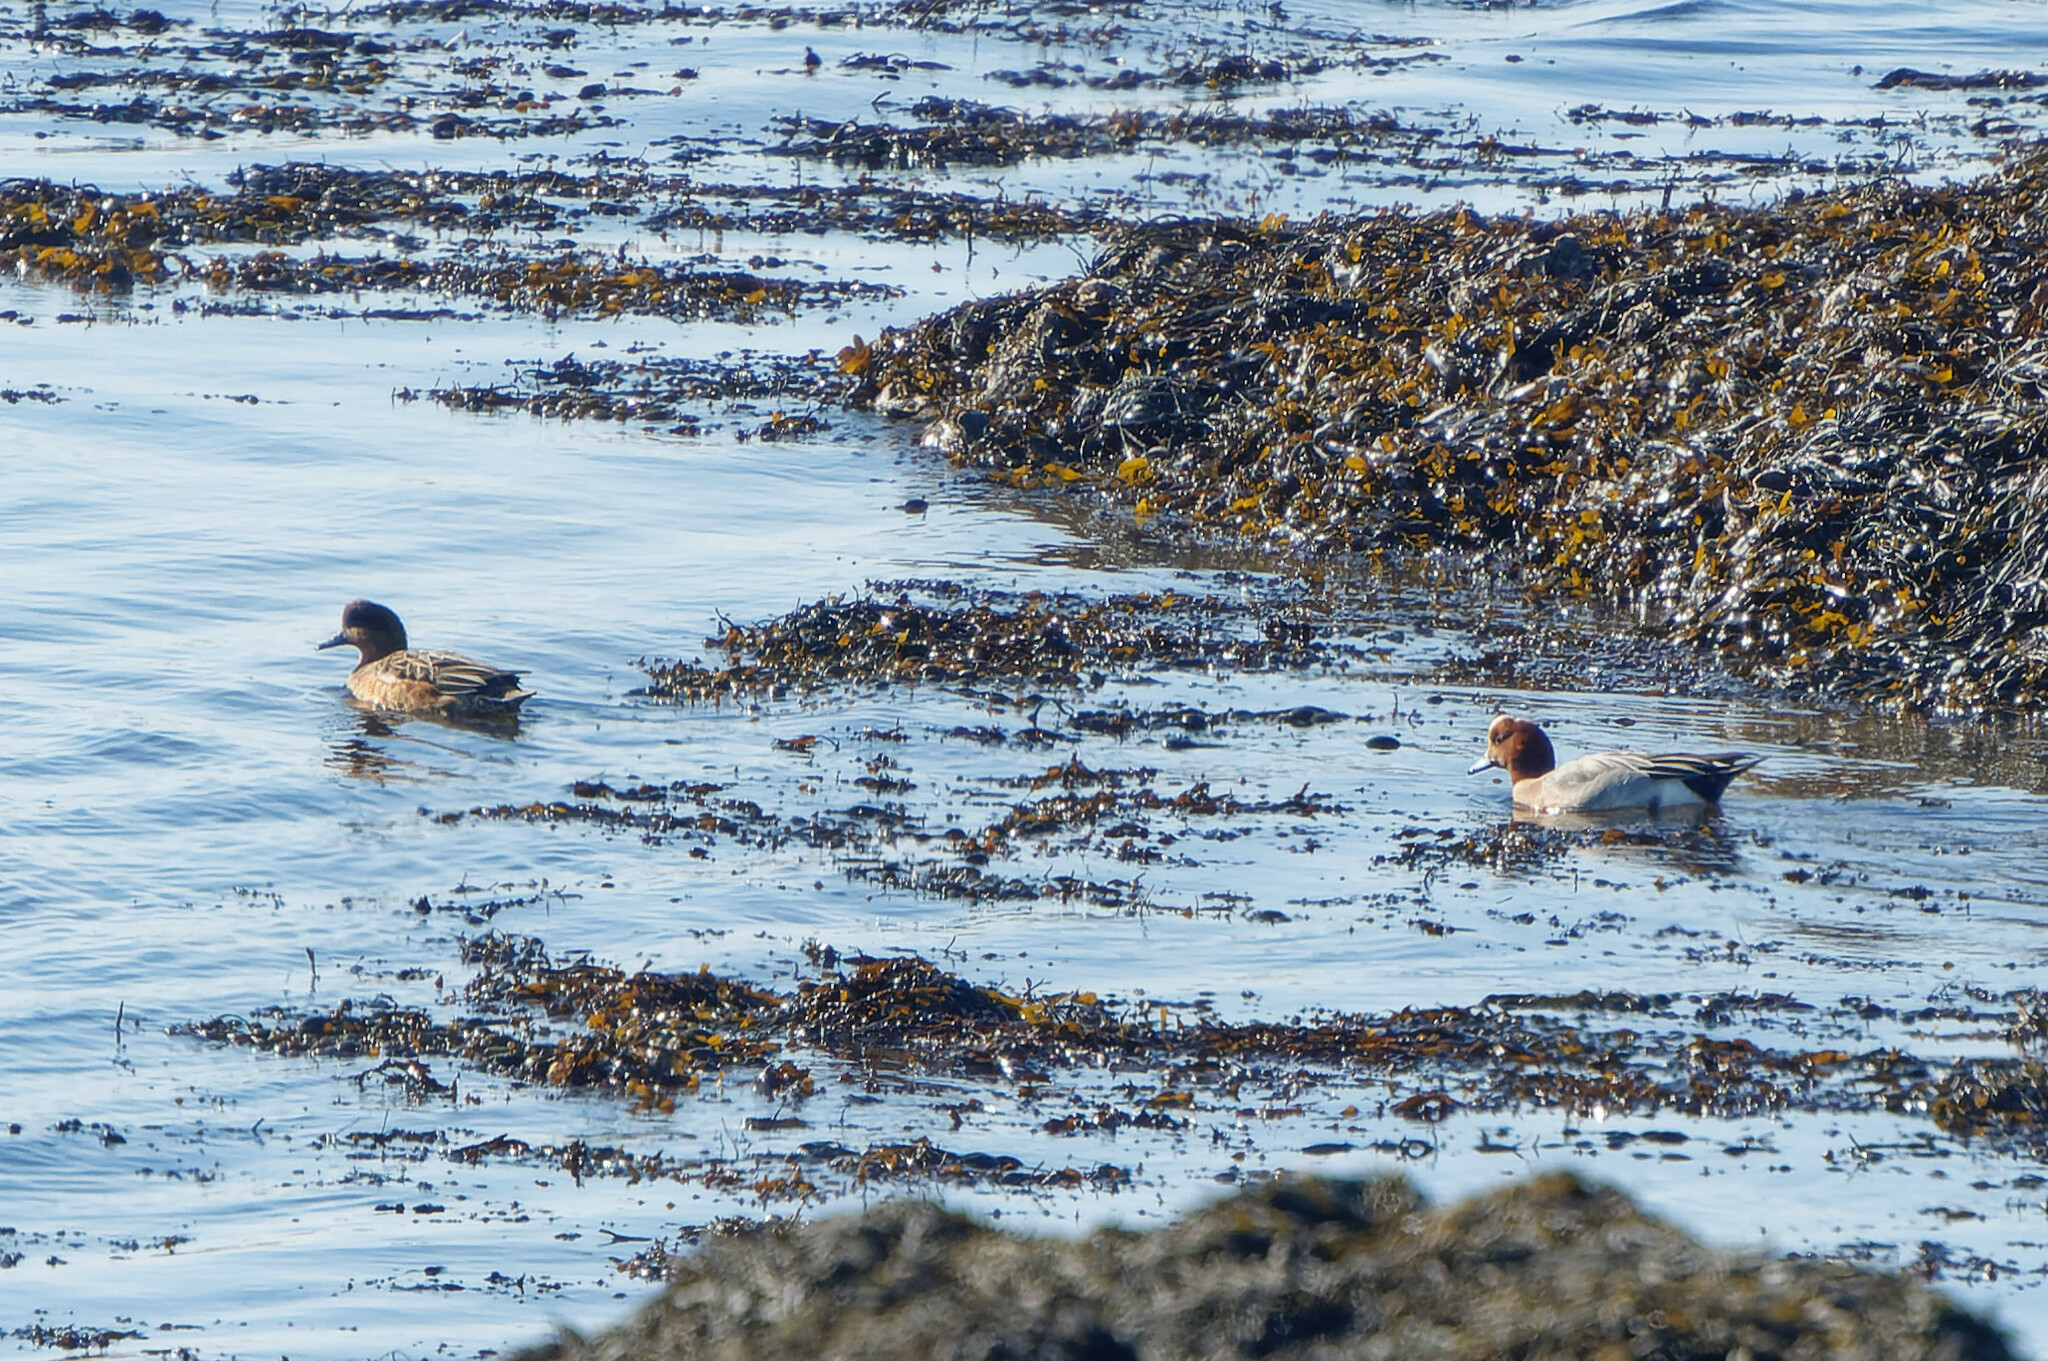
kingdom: Animalia
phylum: Chordata
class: Aves
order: Anseriformes
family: Anatidae
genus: Mareca
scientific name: Mareca penelope
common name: Eurasian wigeon
